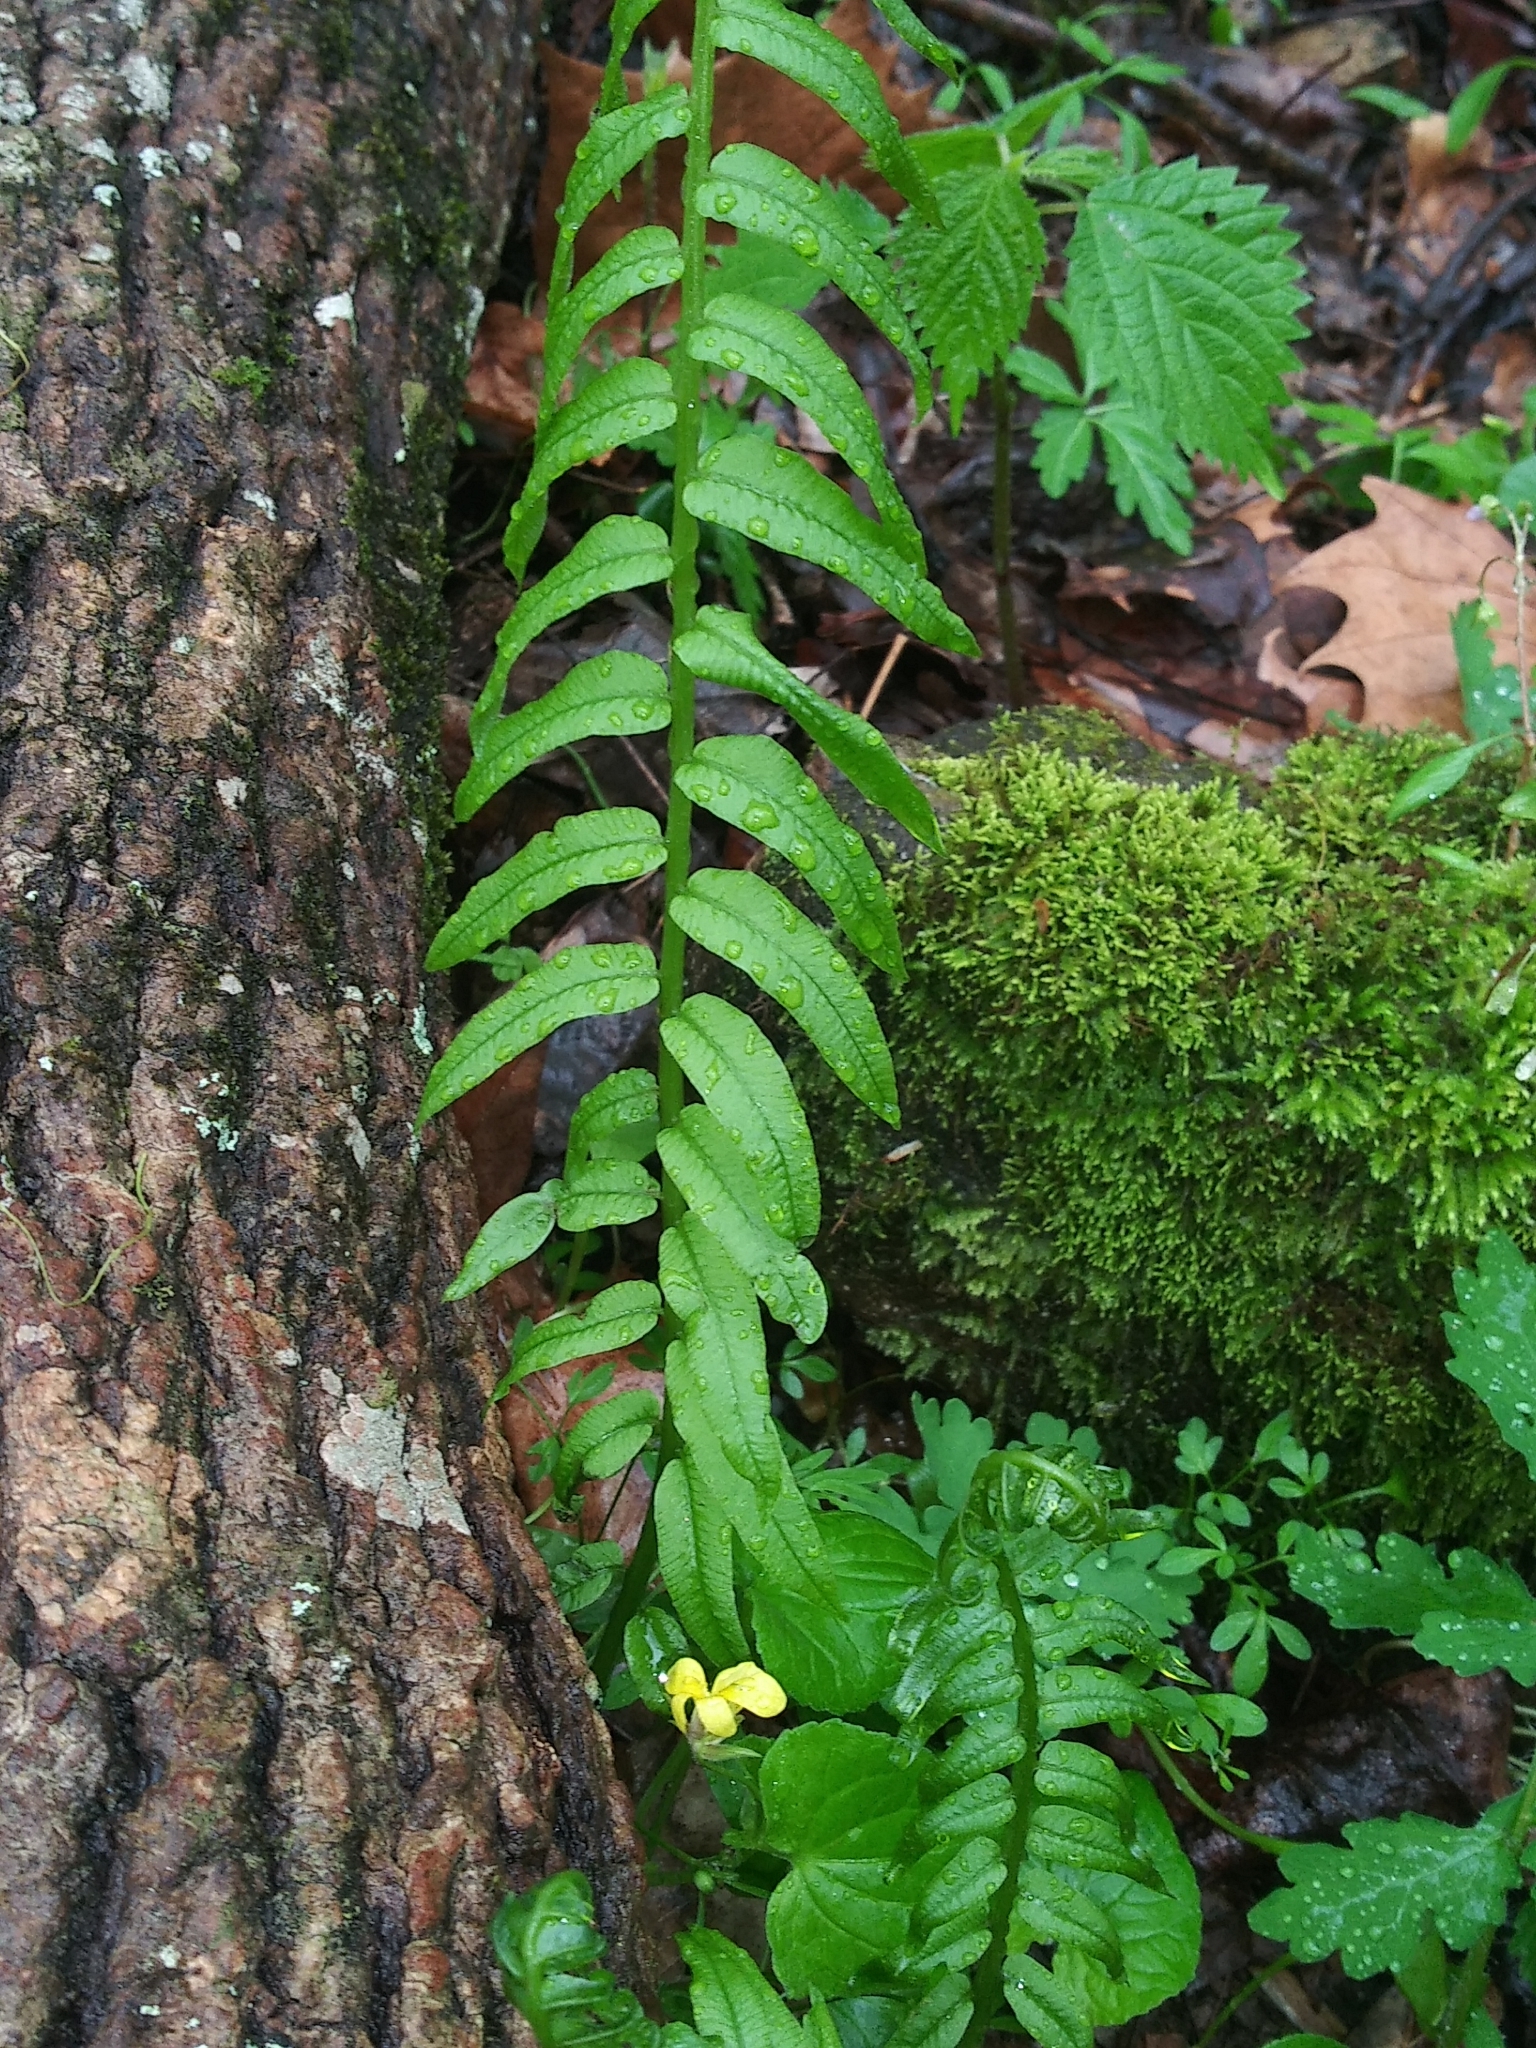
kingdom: Plantae
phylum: Tracheophyta
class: Polypodiopsida
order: Polypodiales
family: Diplaziopsidaceae
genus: Homalosorus
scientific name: Homalosorus pycnocarpos
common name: Glade fern
